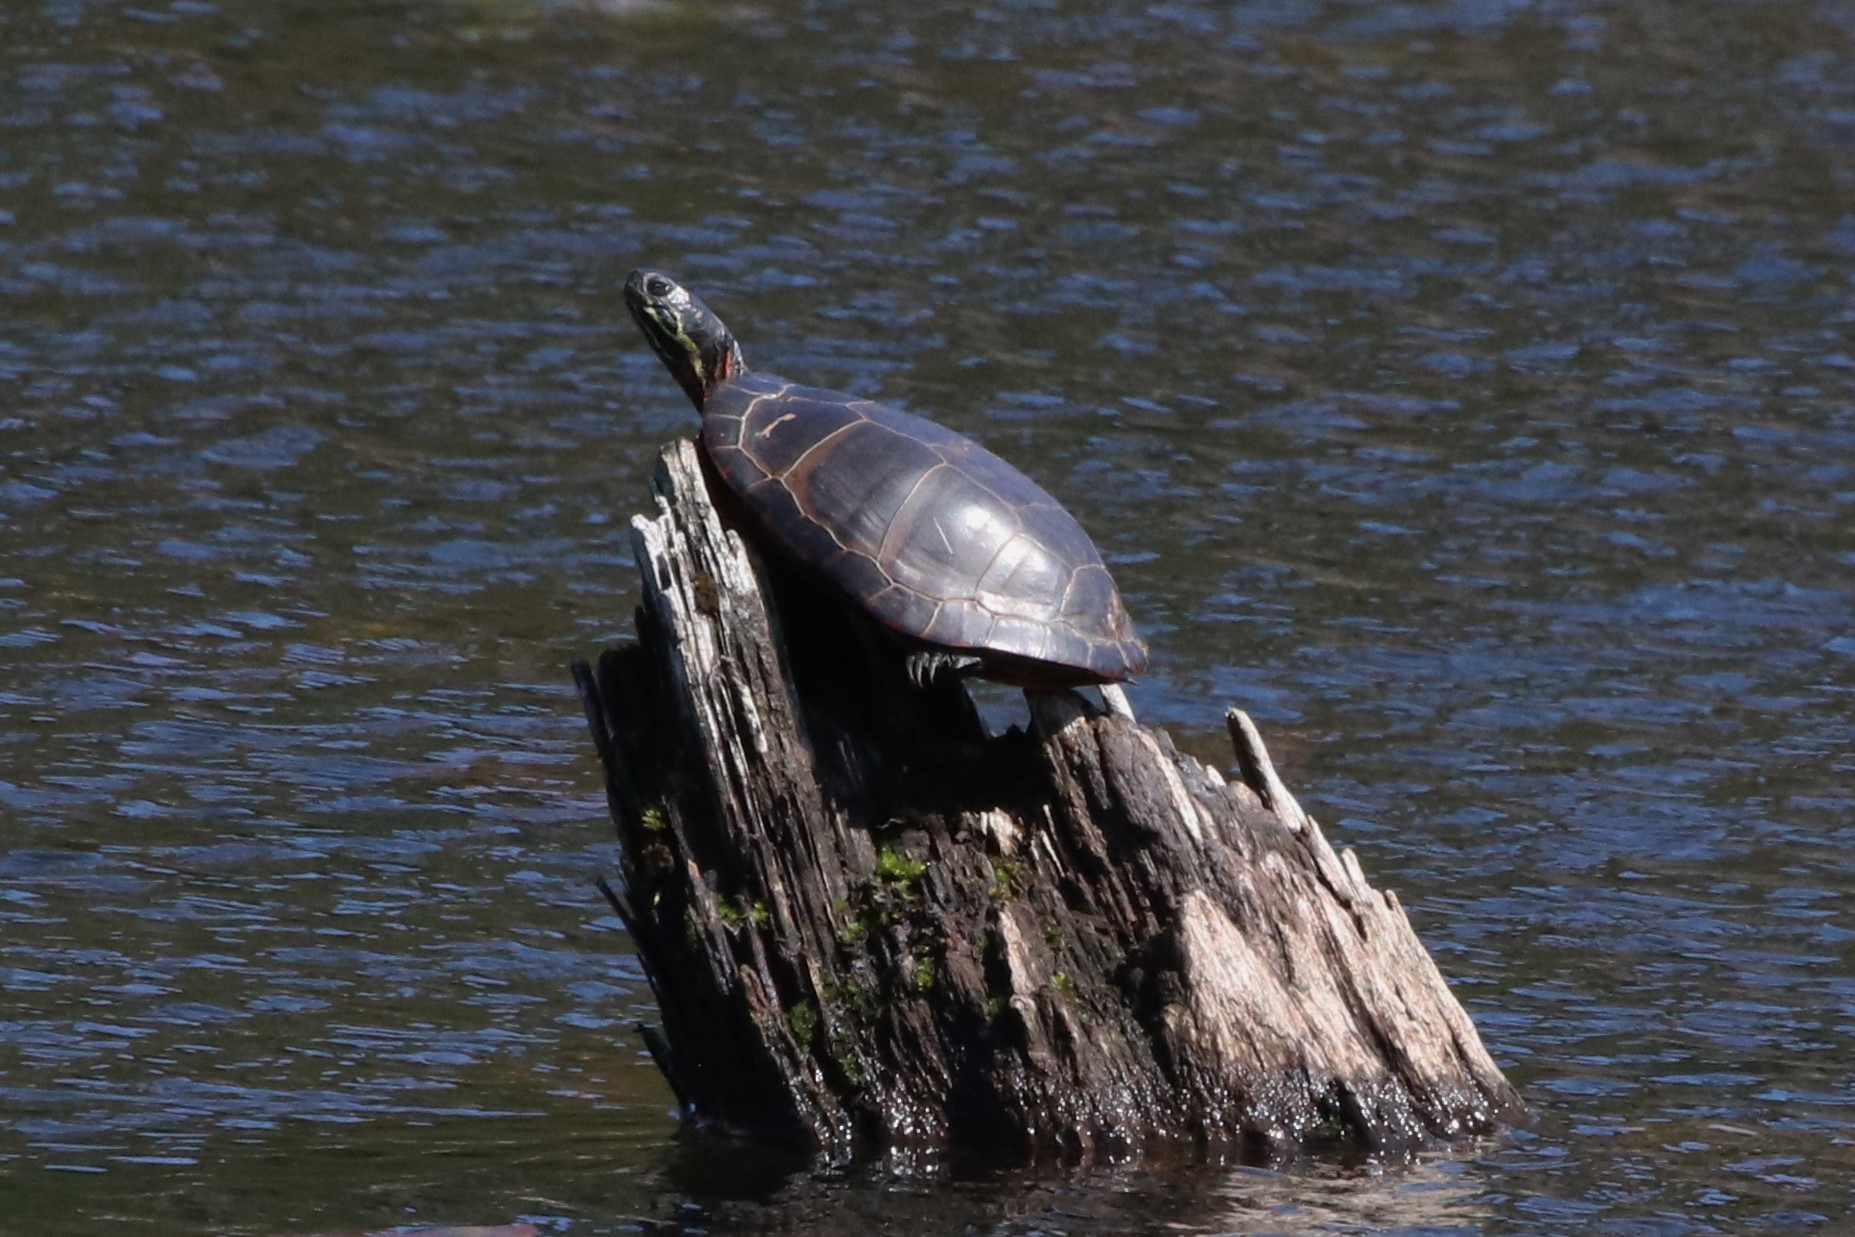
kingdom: Animalia
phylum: Chordata
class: Testudines
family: Emydidae
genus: Chrysemys
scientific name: Chrysemys picta
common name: Painted turtle
